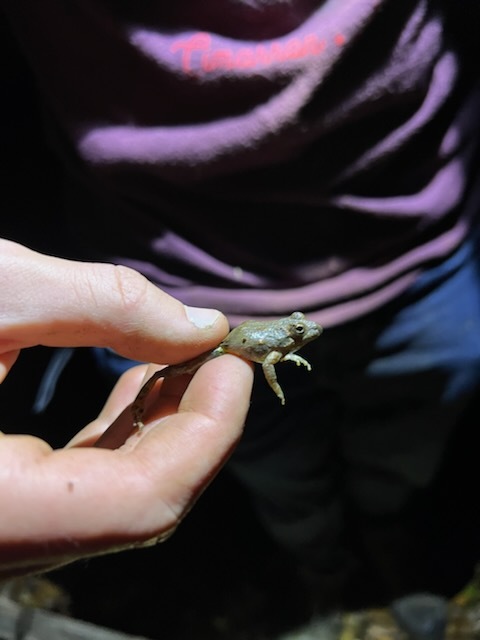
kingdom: Animalia
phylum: Chordata
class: Amphibia
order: Anura
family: Hylidae
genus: Acris
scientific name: Acris crepitans
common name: Northern cricket frog
